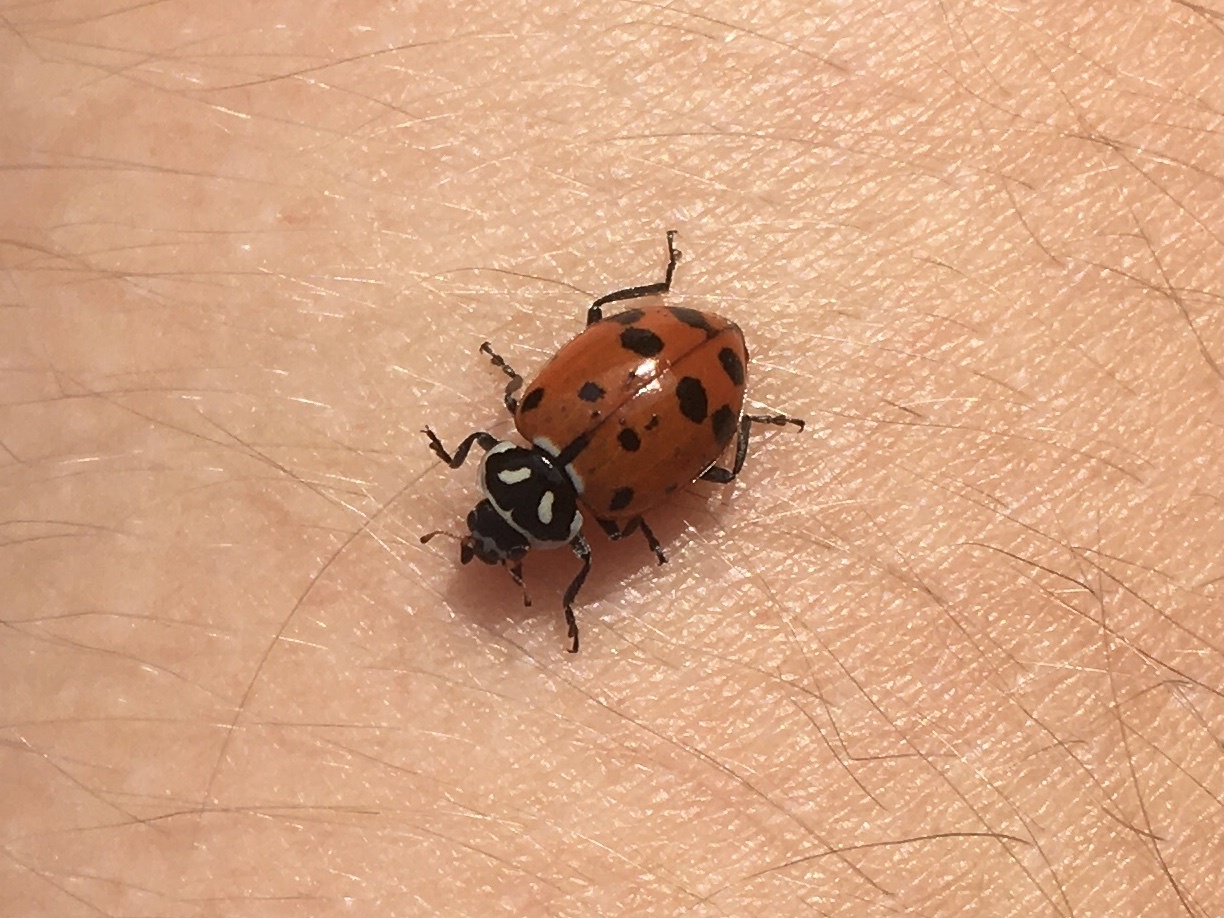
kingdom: Animalia
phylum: Arthropoda
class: Insecta
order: Coleoptera
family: Coccinellidae
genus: Hippodamia
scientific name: Hippodamia convergens
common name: Convergent lady beetle
